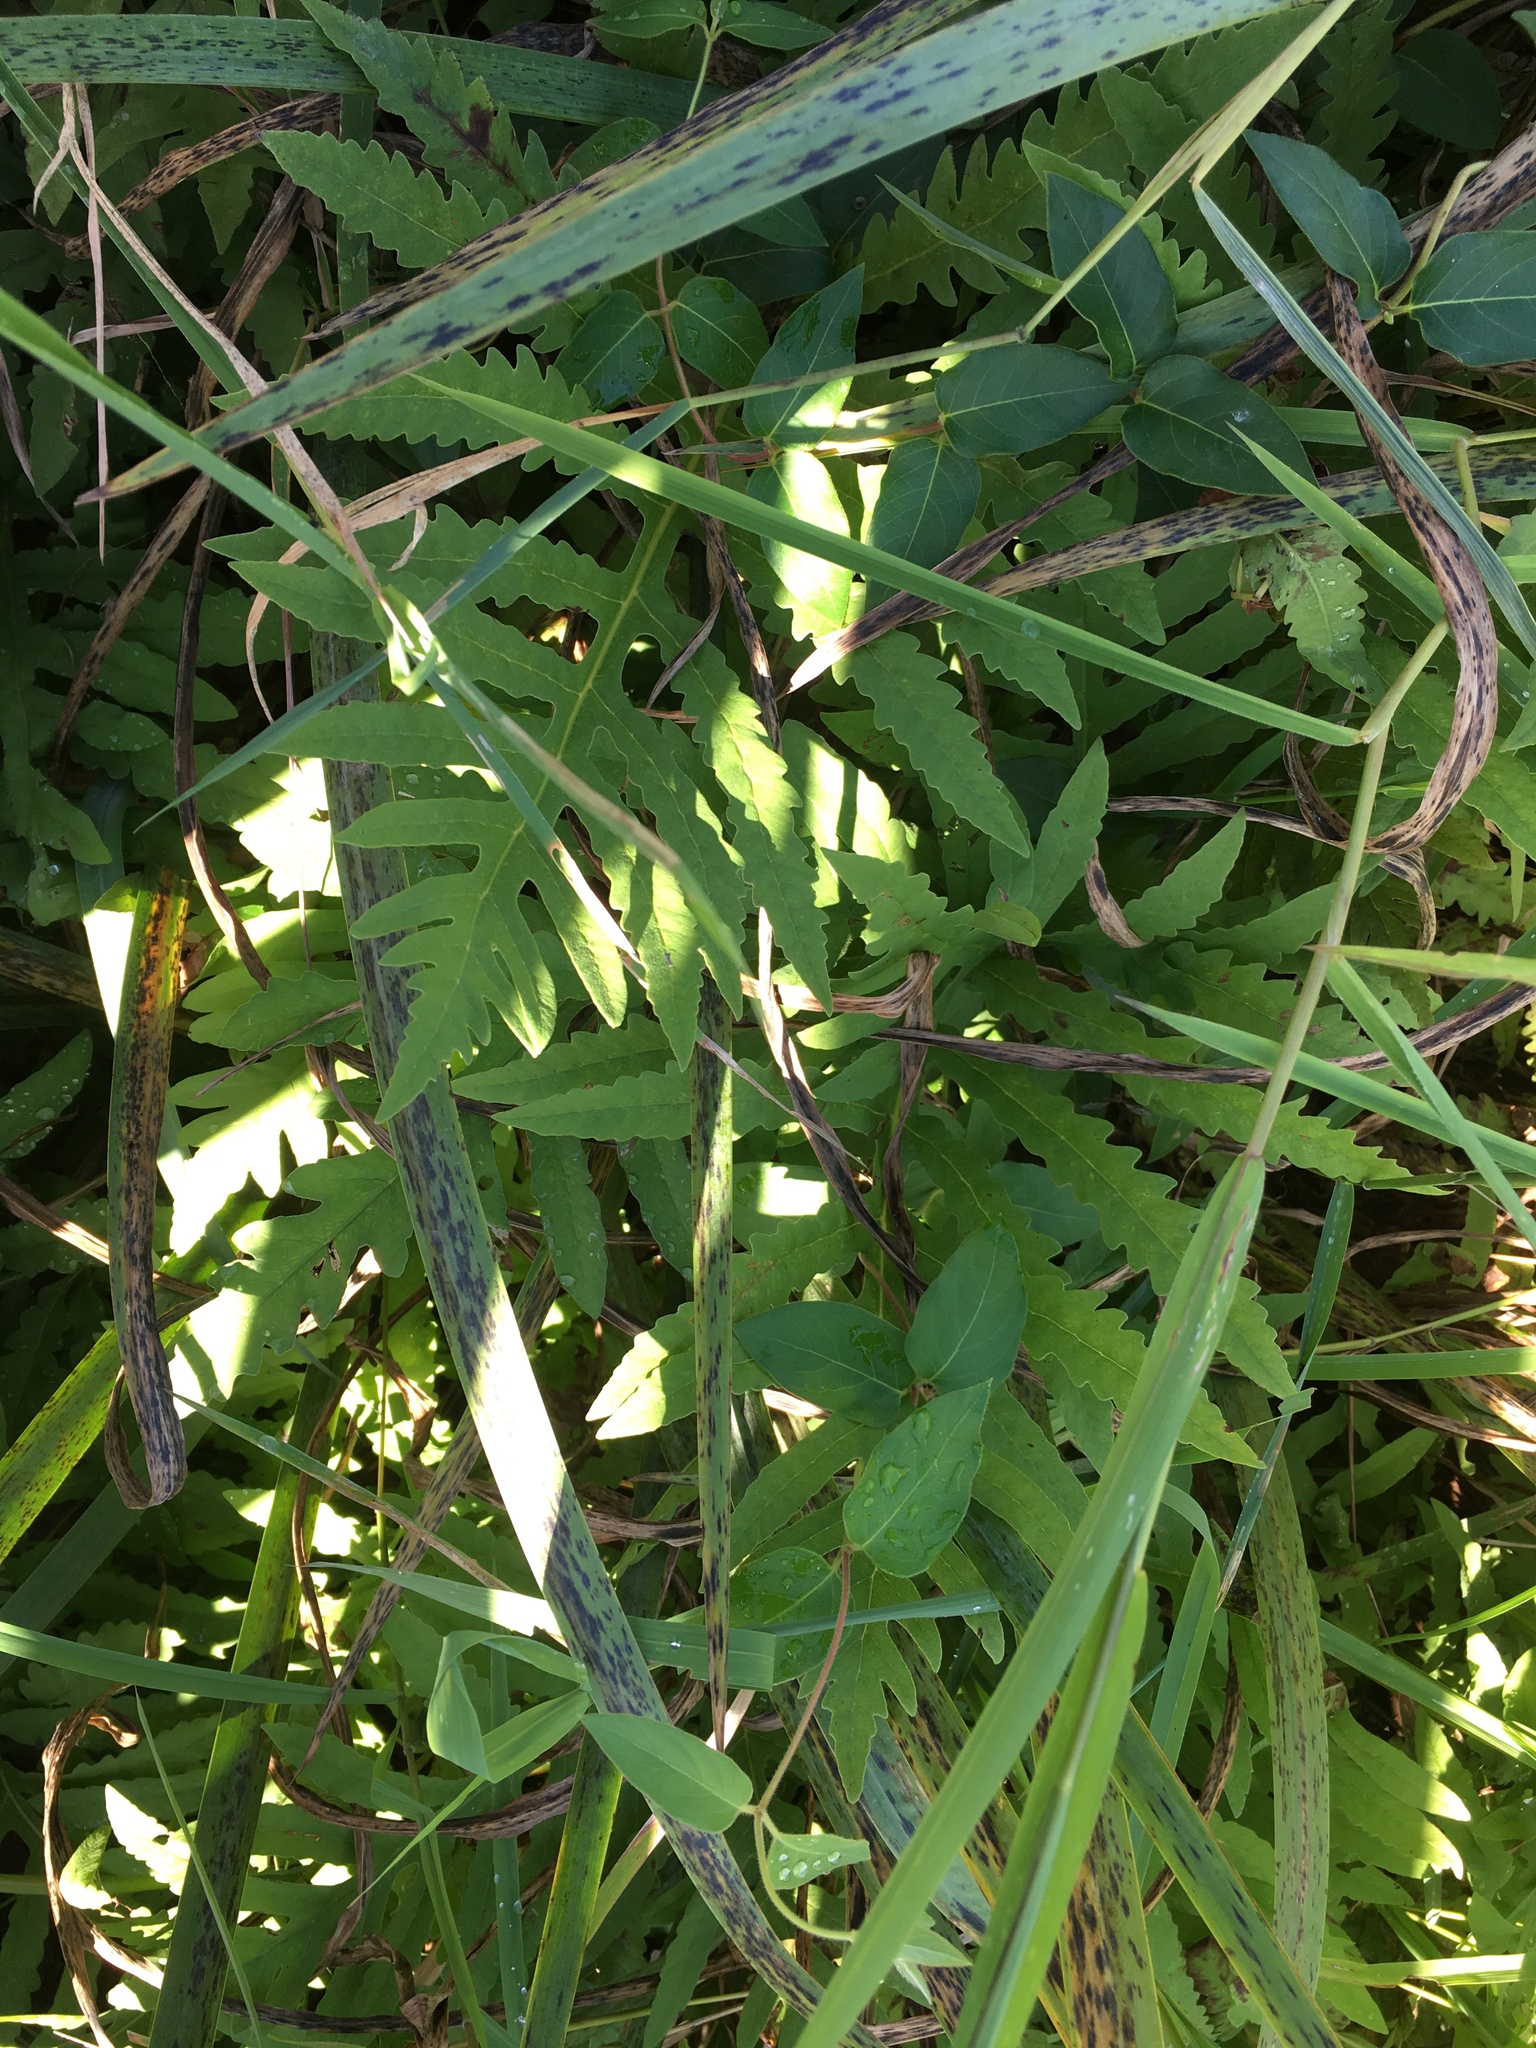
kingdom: Plantae
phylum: Tracheophyta
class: Polypodiopsida
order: Polypodiales
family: Onocleaceae
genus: Onoclea
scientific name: Onoclea sensibilis
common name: Sensitive fern
